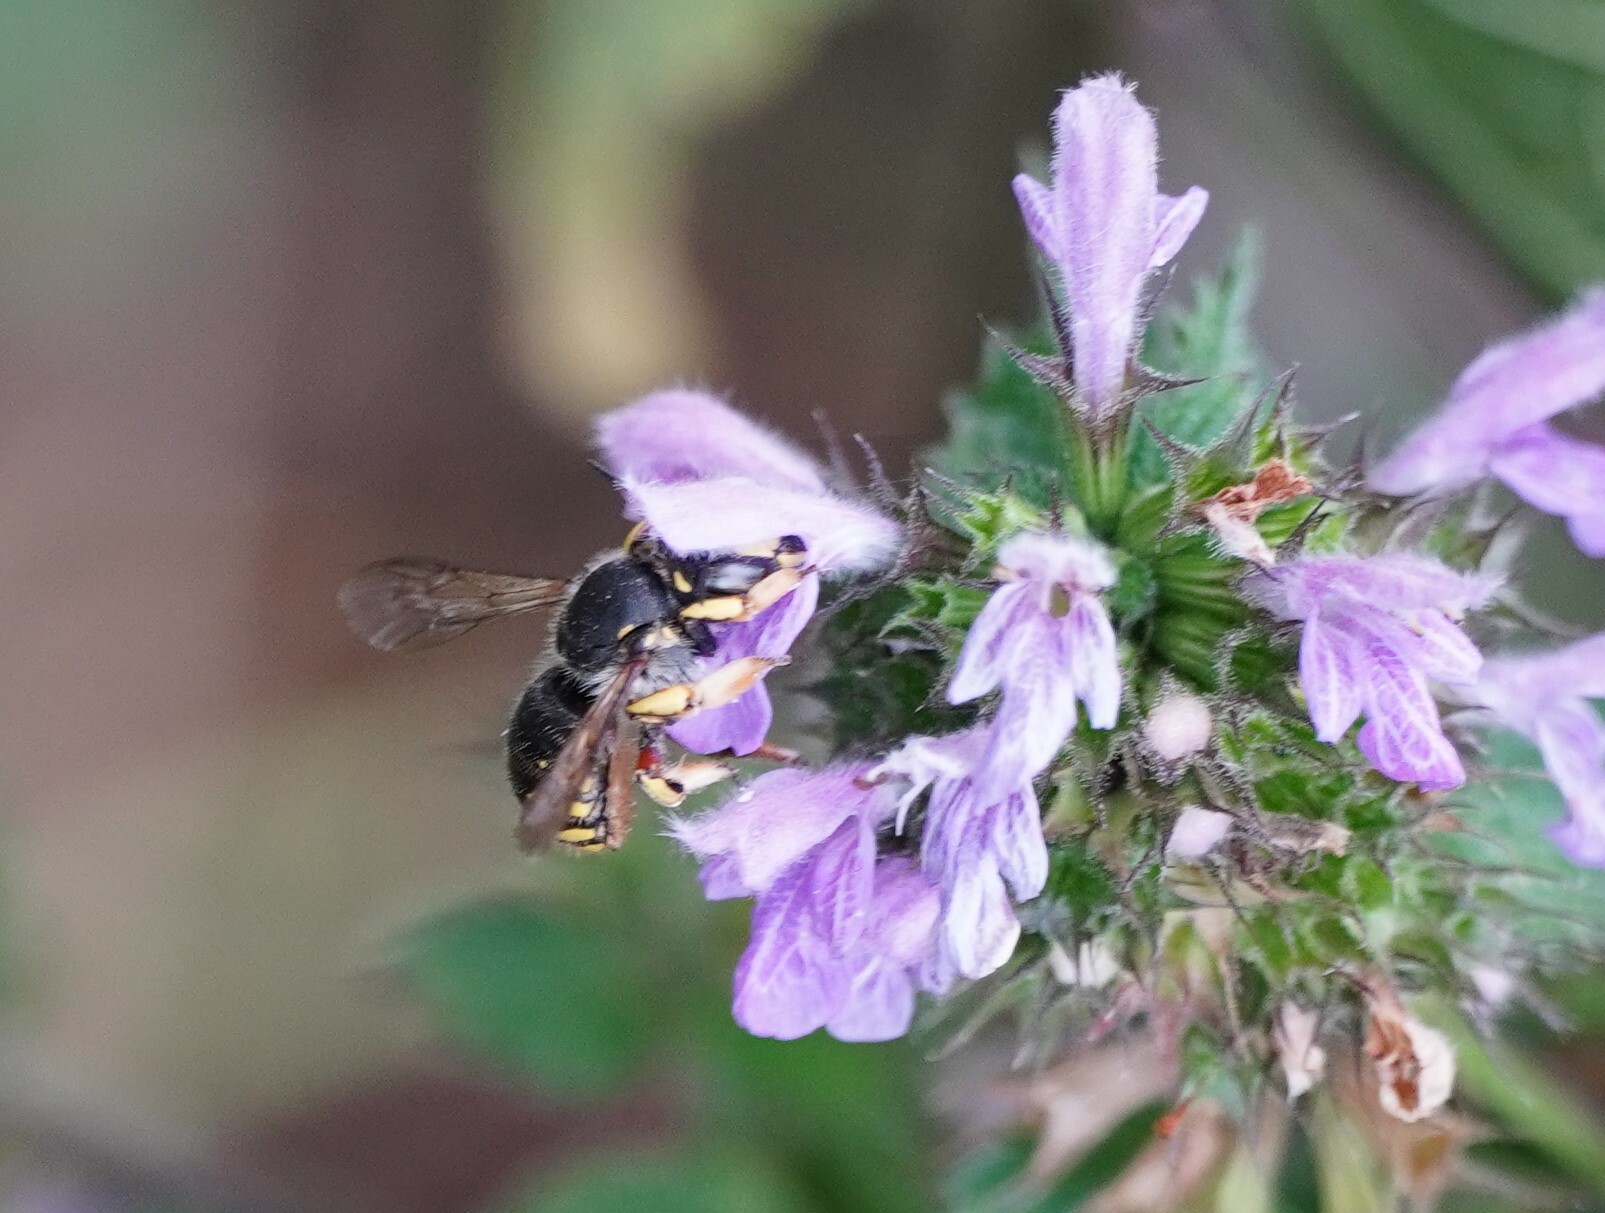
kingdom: Animalia
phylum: Arthropoda
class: Insecta
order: Hymenoptera
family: Megachilidae
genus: Anthidium
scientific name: Anthidium manicatum
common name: Wool carder bee
